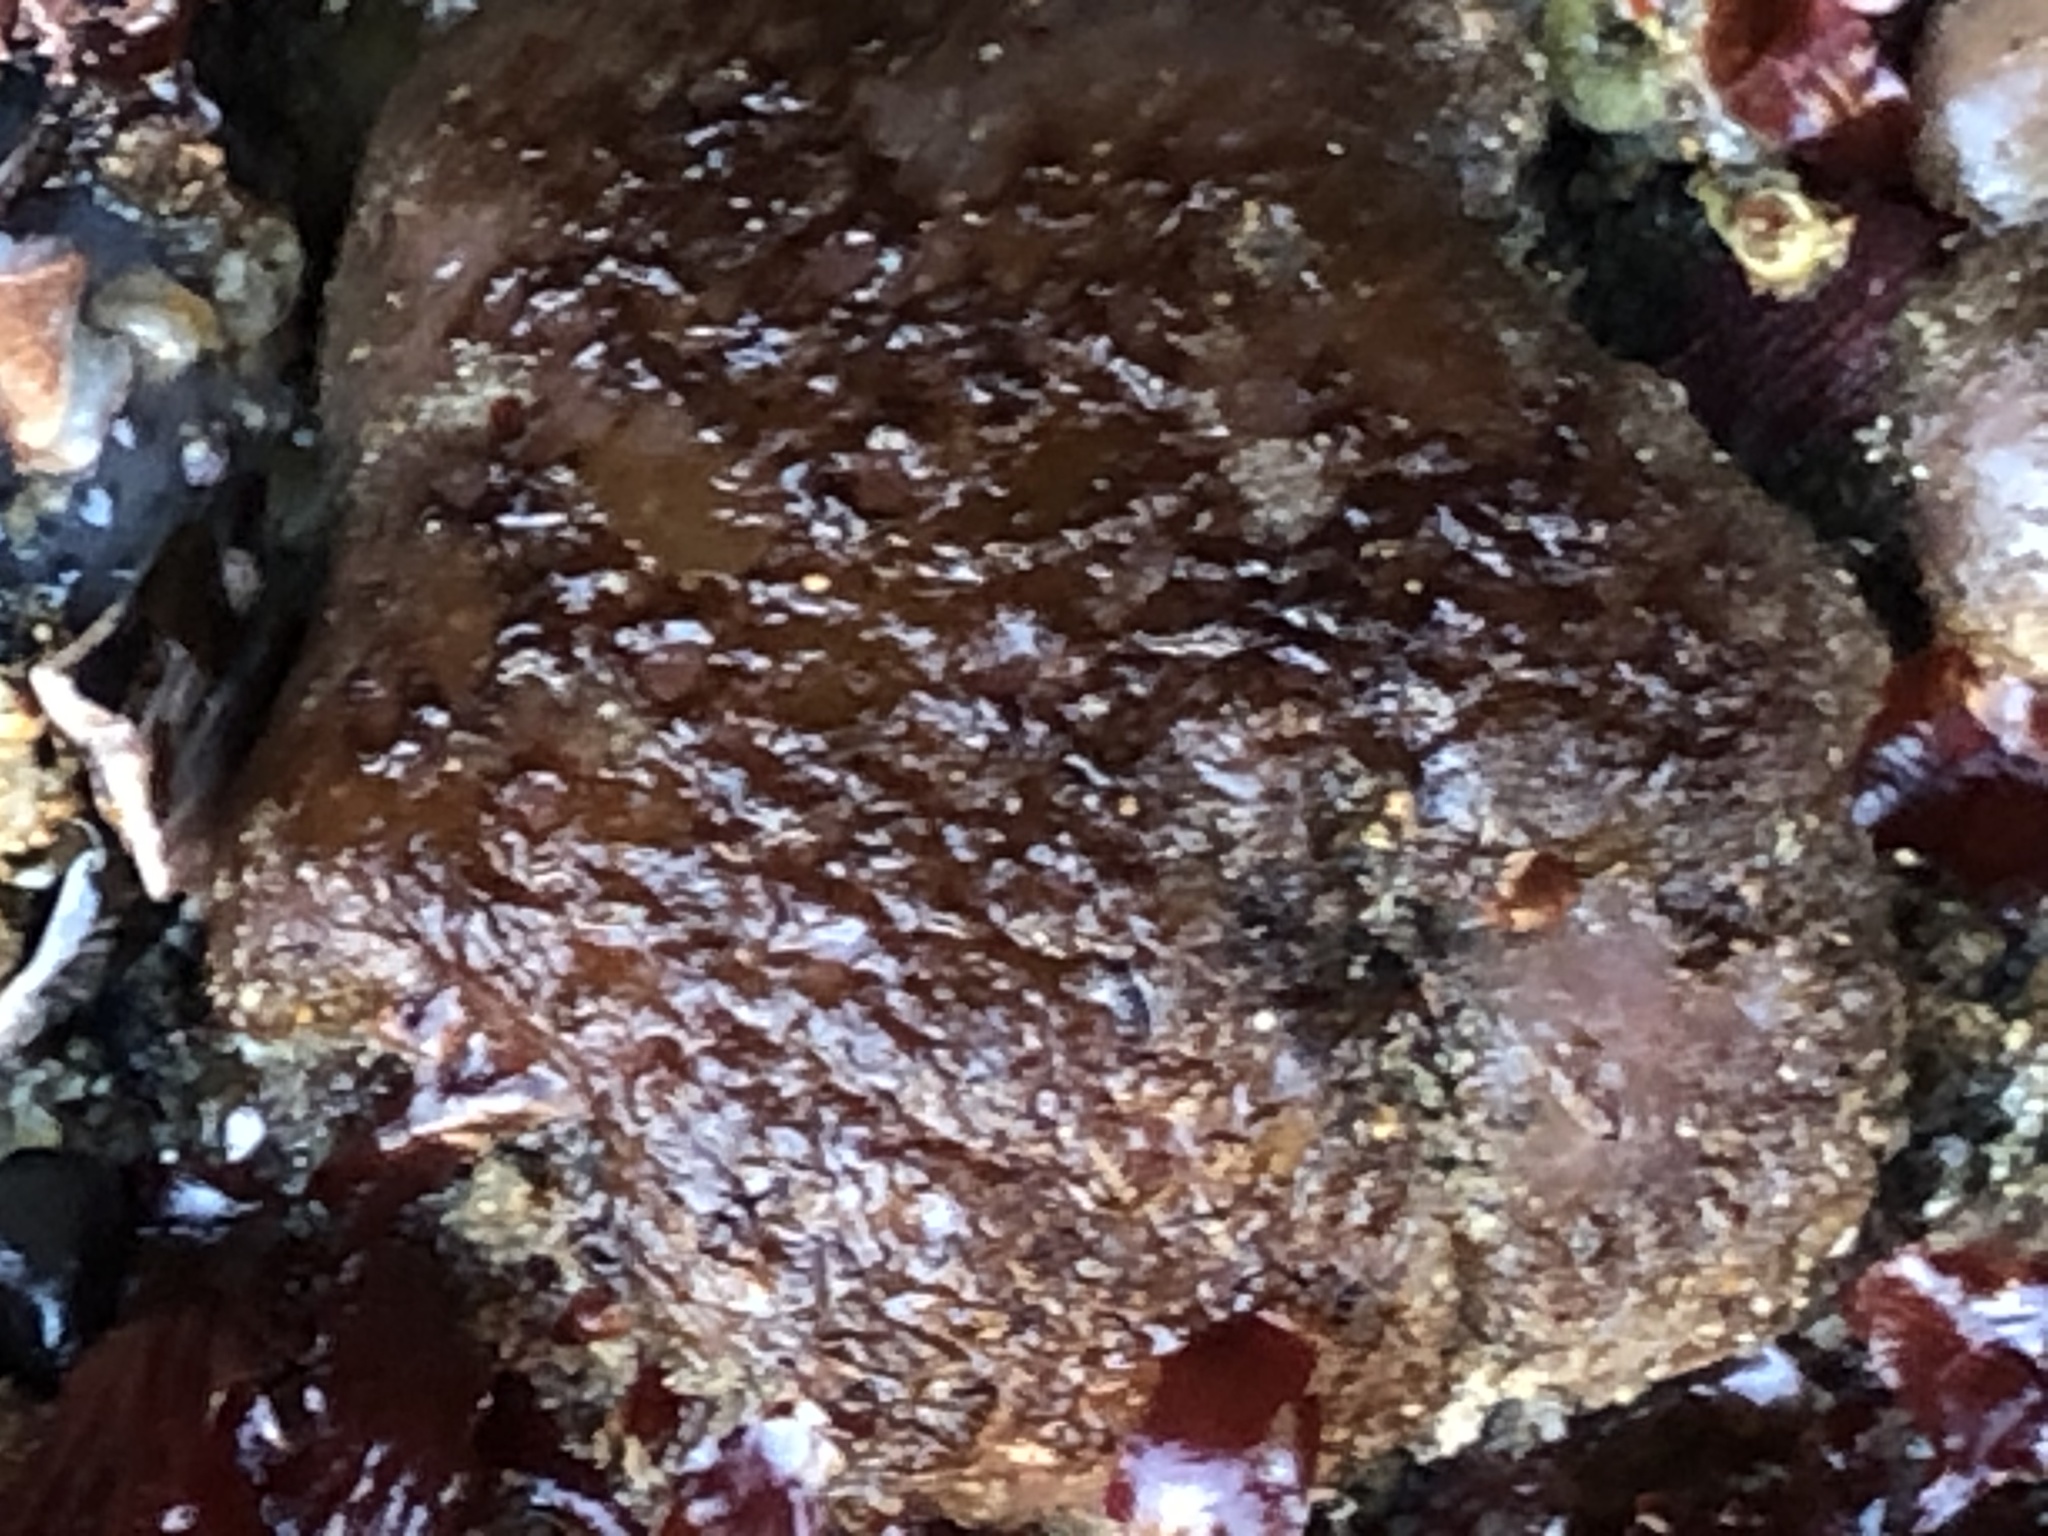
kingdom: Animalia
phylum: Chordata
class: Ascidiacea
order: Aplousobranchia
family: Polycitoridae
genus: Eudistoma
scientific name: Eudistoma psammion
